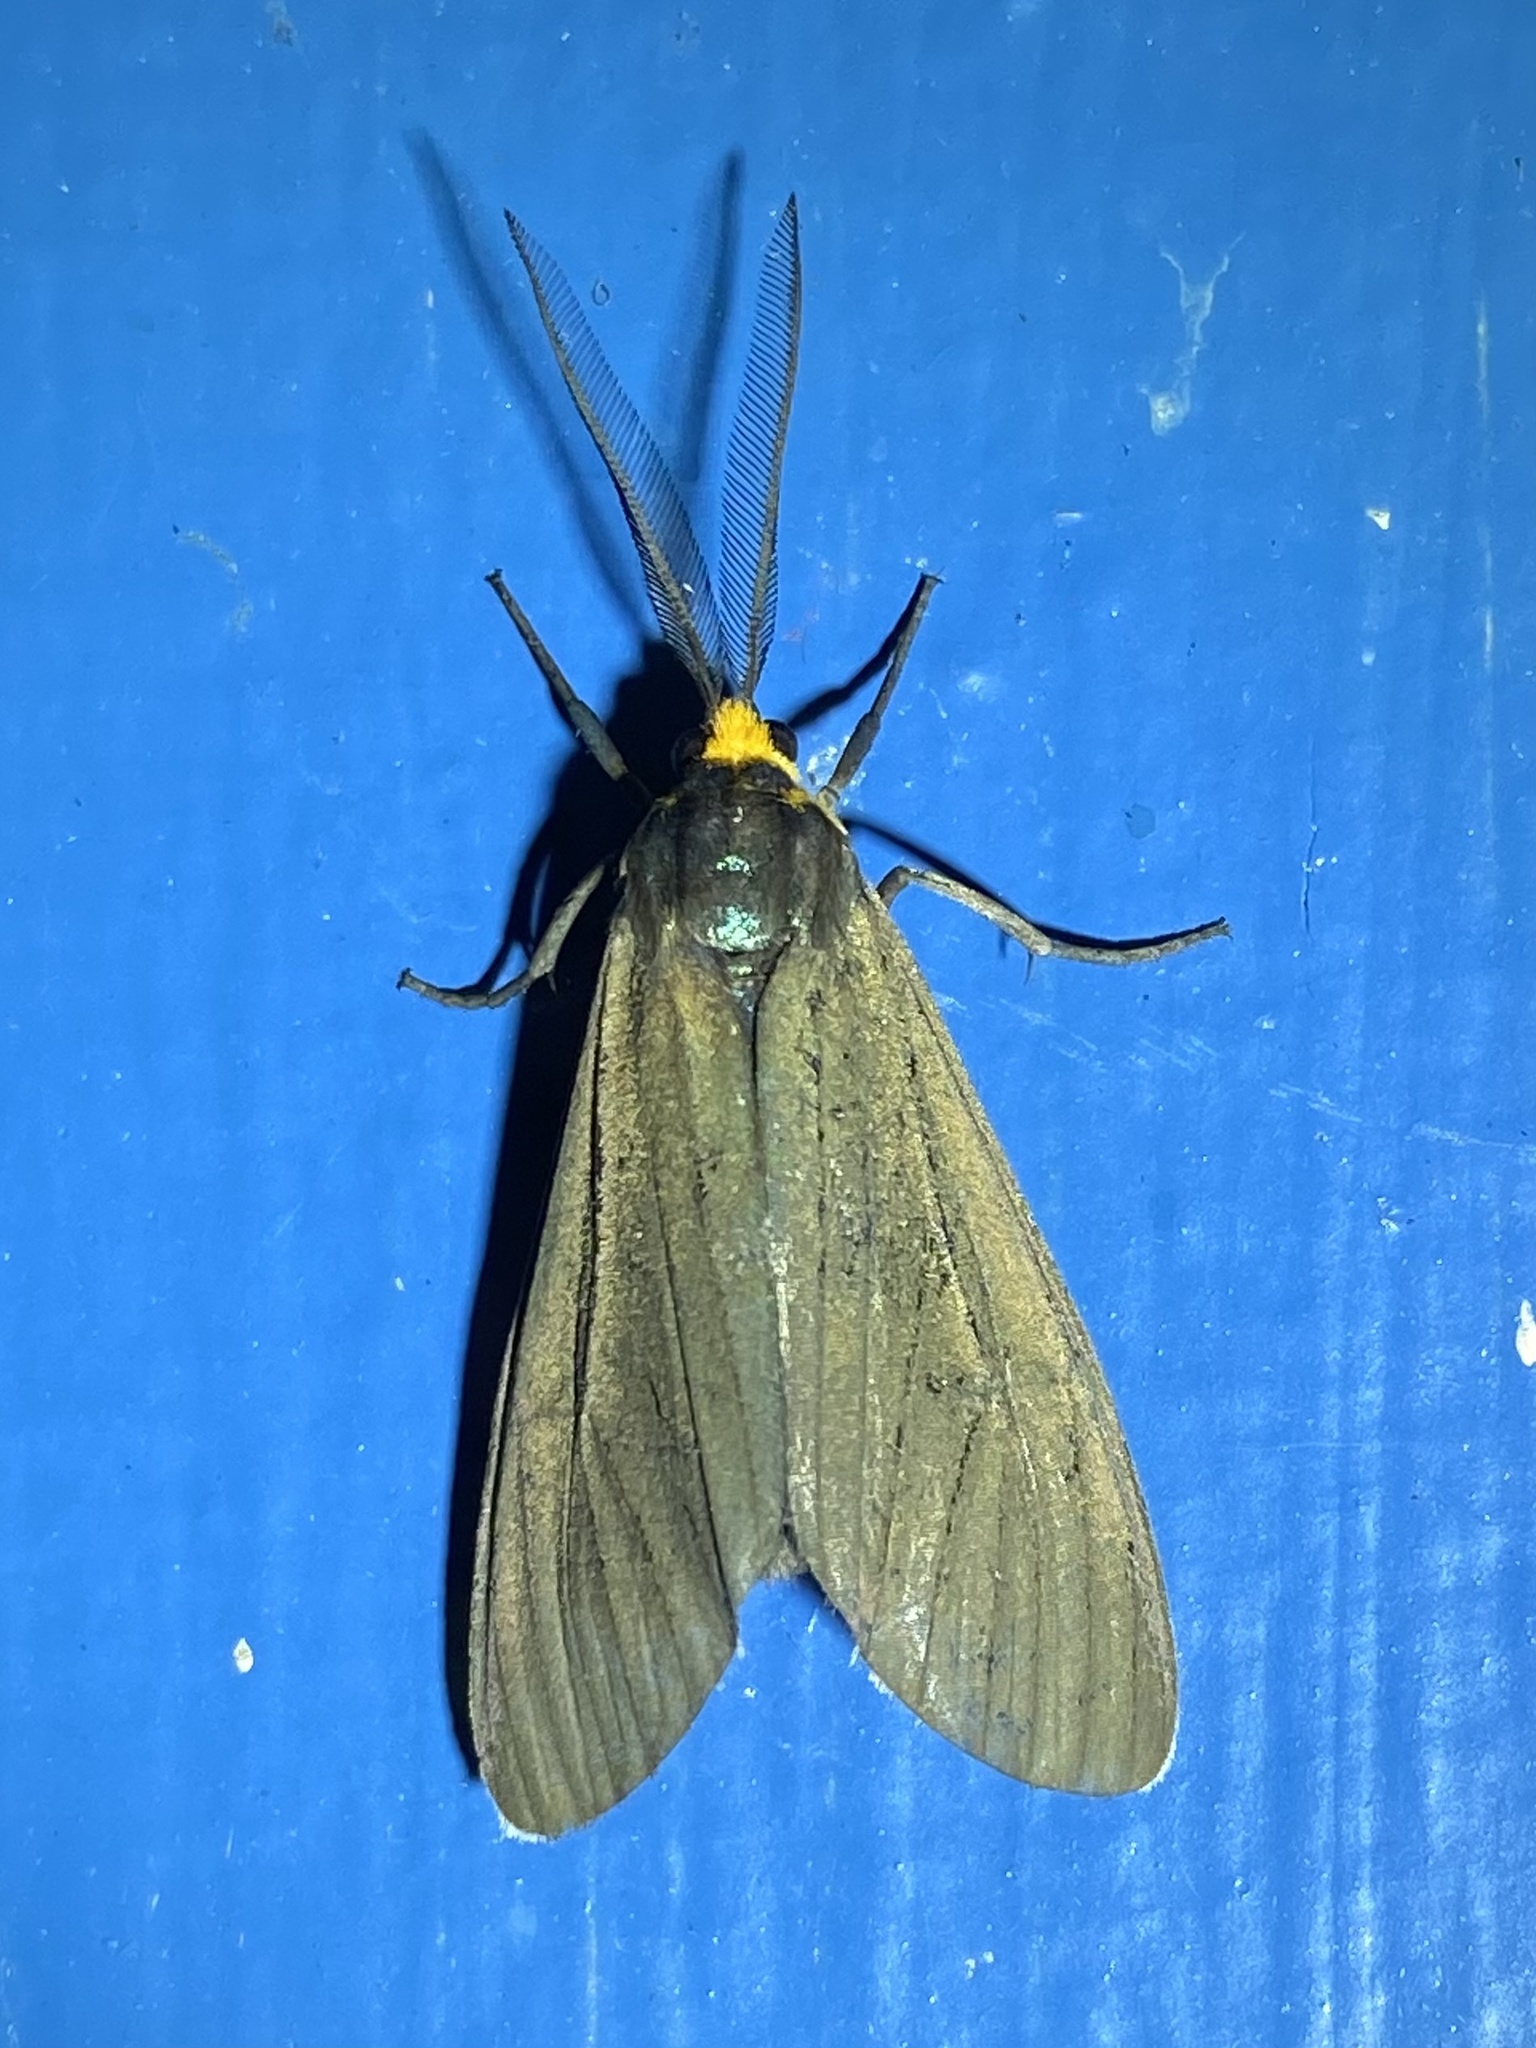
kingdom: Animalia
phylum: Arthropoda
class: Insecta
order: Lepidoptera
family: Erebidae
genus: Ctenucha
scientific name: Ctenucha virginica
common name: Virginia ctenucha moth
